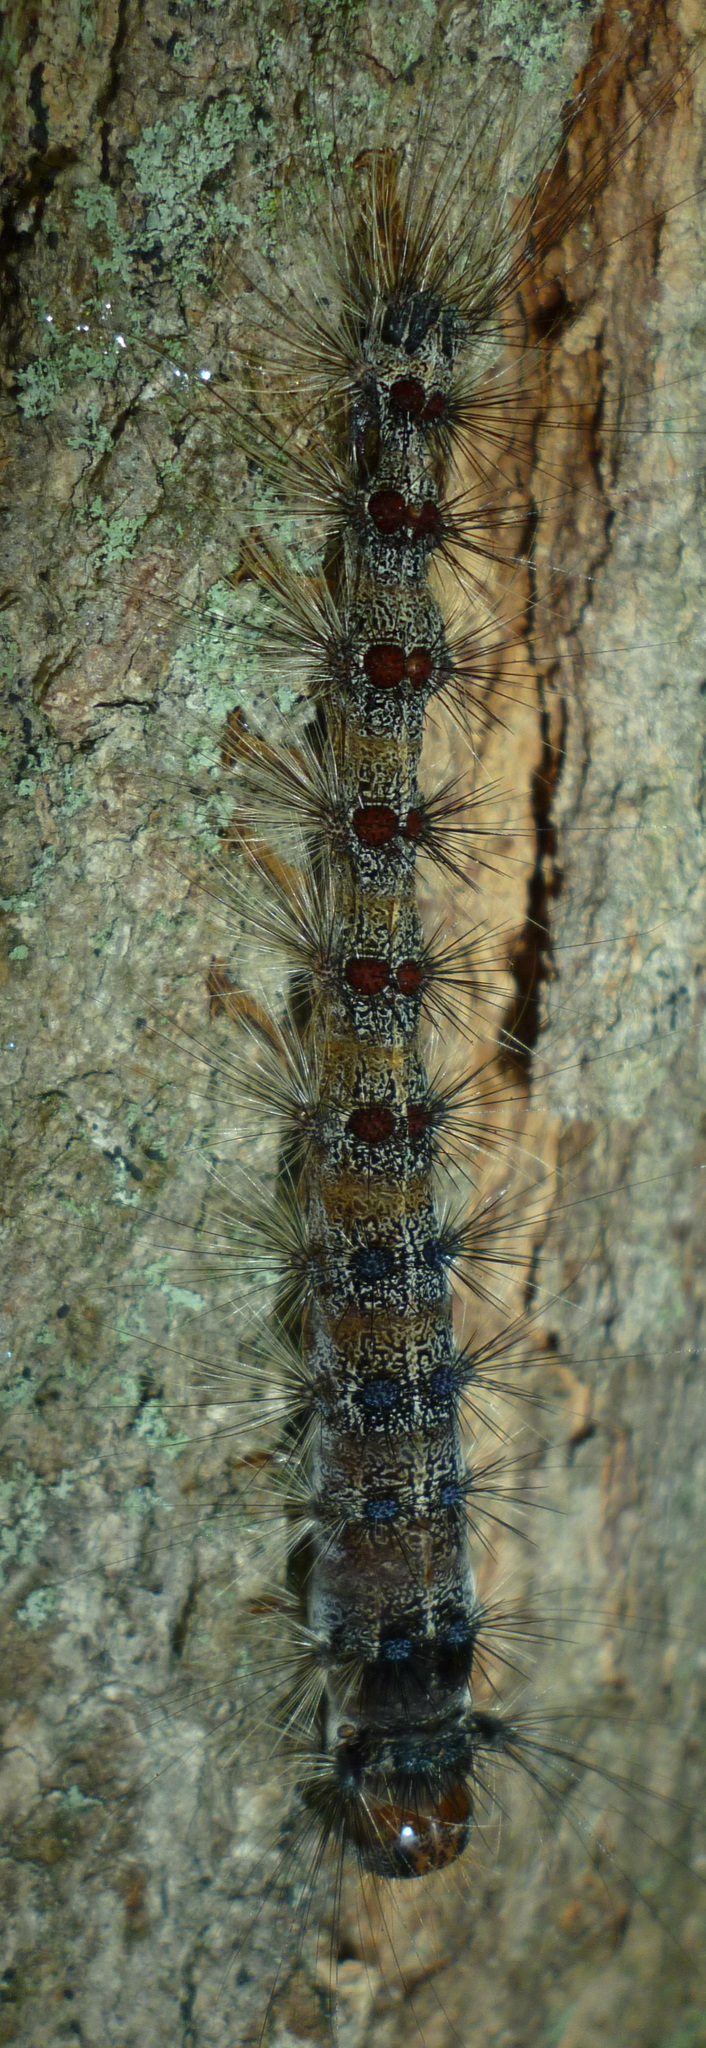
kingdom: Animalia
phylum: Arthropoda
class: Insecta
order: Lepidoptera
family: Erebidae
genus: Lymantria
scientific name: Lymantria dispar
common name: Gypsy moth
